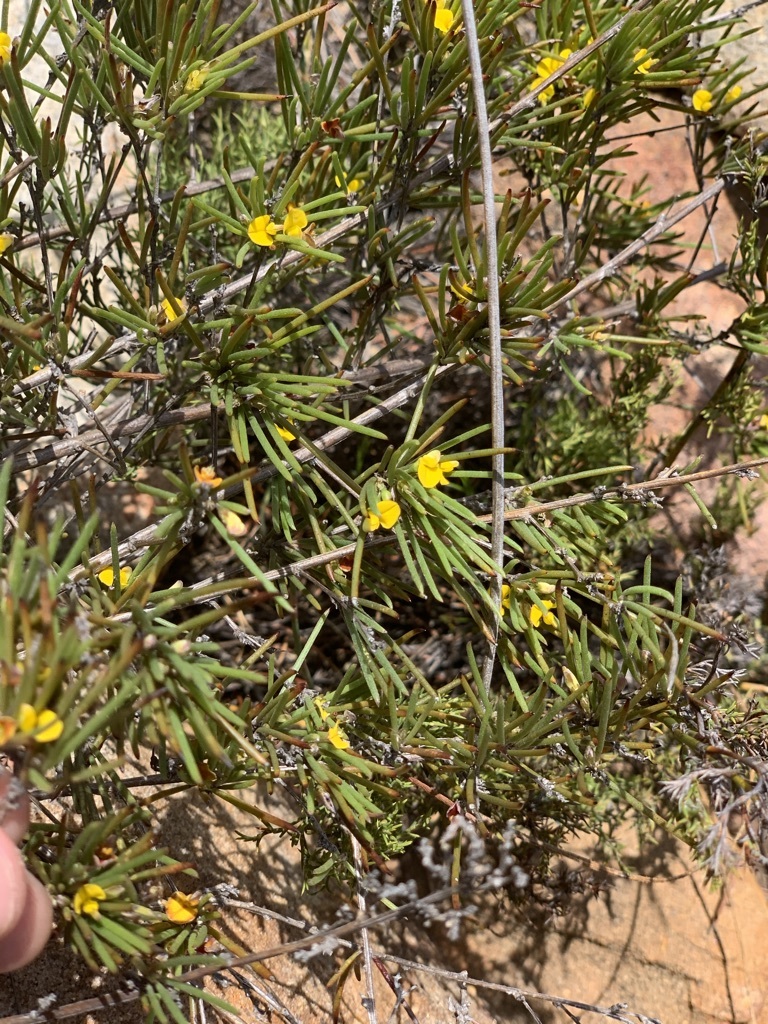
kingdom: Plantae
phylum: Tracheophyta
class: Magnoliopsida
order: Fabales
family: Fabaceae
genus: Aspalathus
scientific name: Aspalathus linearis
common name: Rooibos-tea
